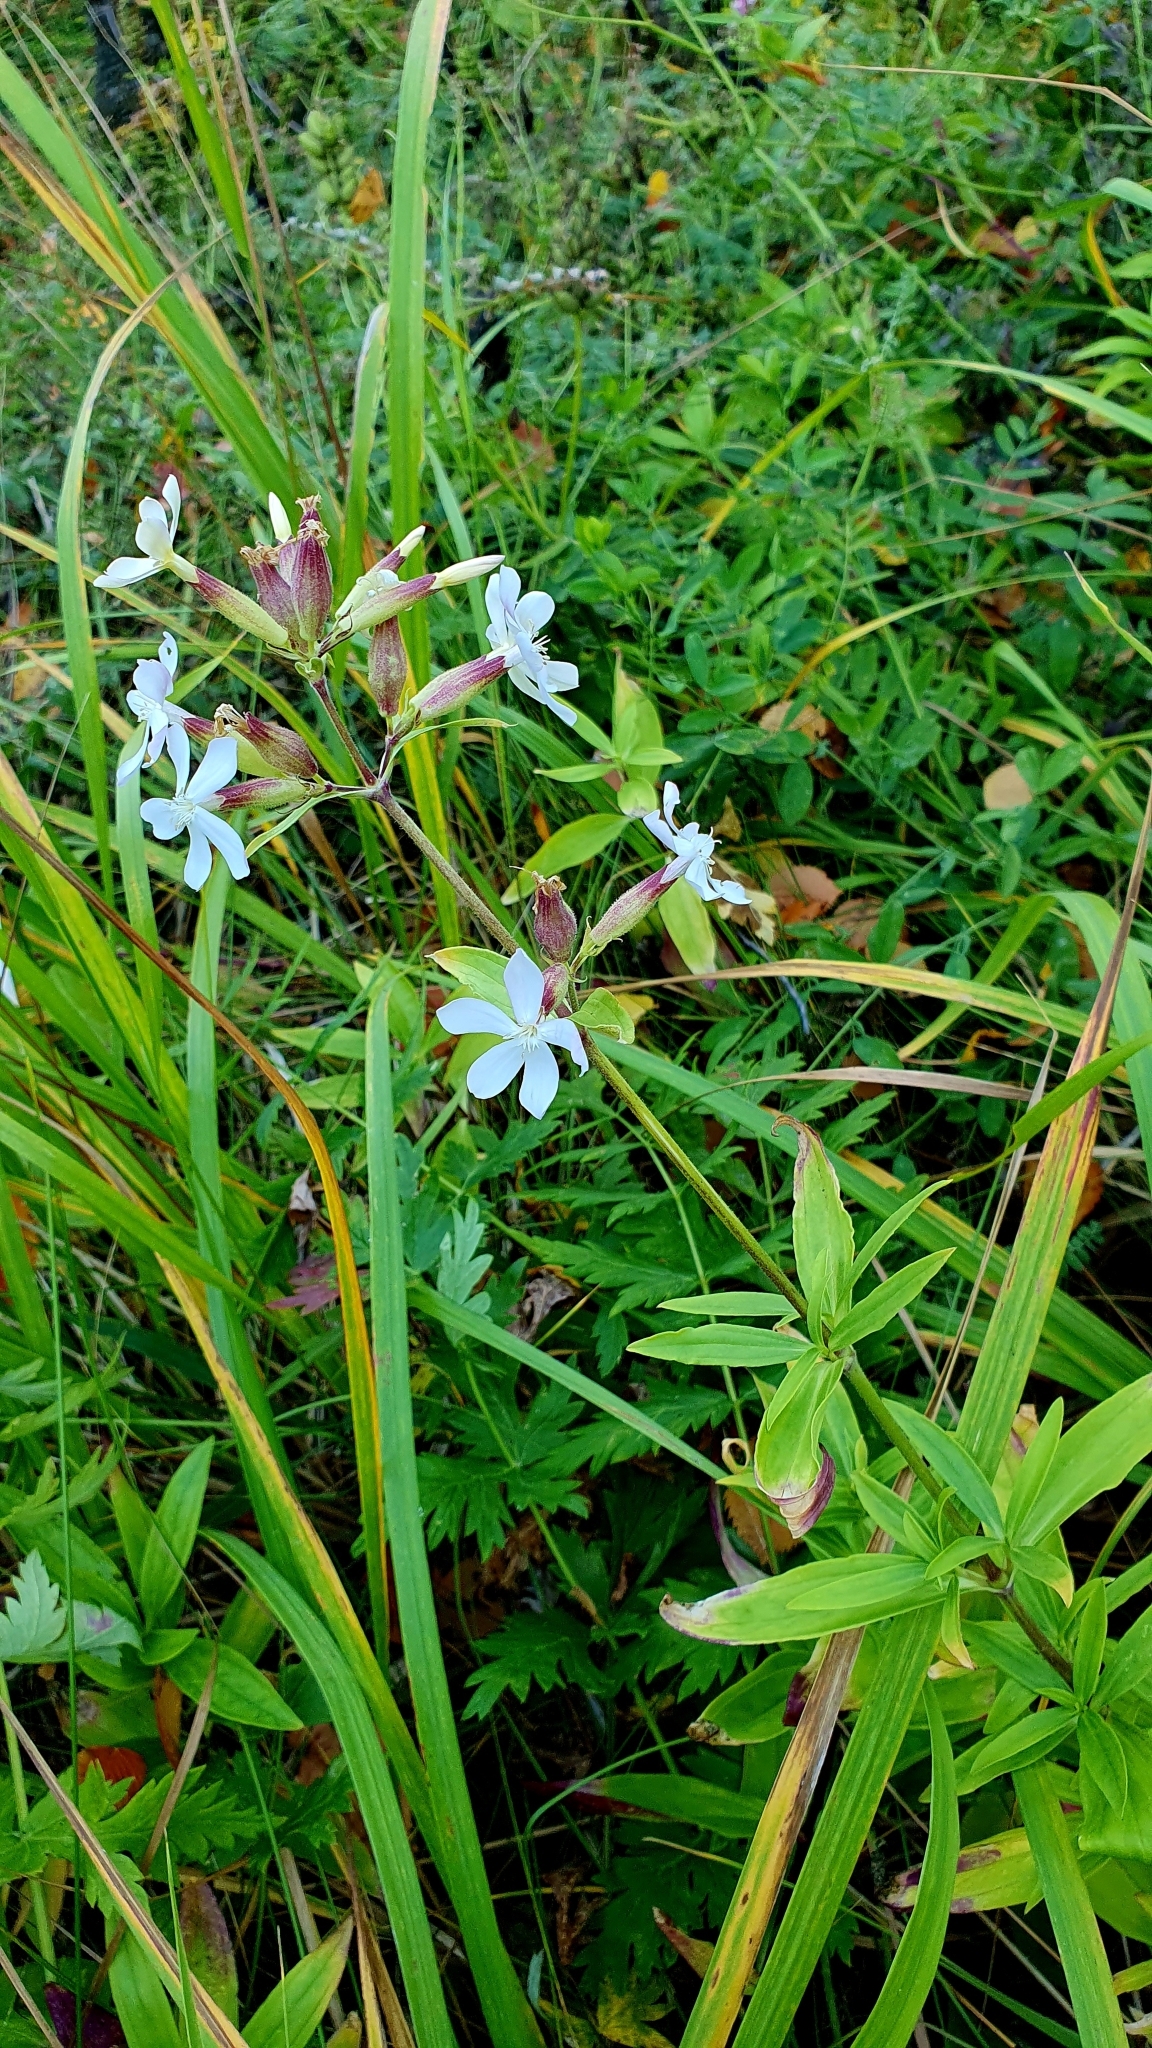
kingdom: Plantae
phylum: Tracheophyta
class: Magnoliopsida
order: Caryophyllales
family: Caryophyllaceae
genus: Saponaria
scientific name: Saponaria officinalis
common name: Soapwort
